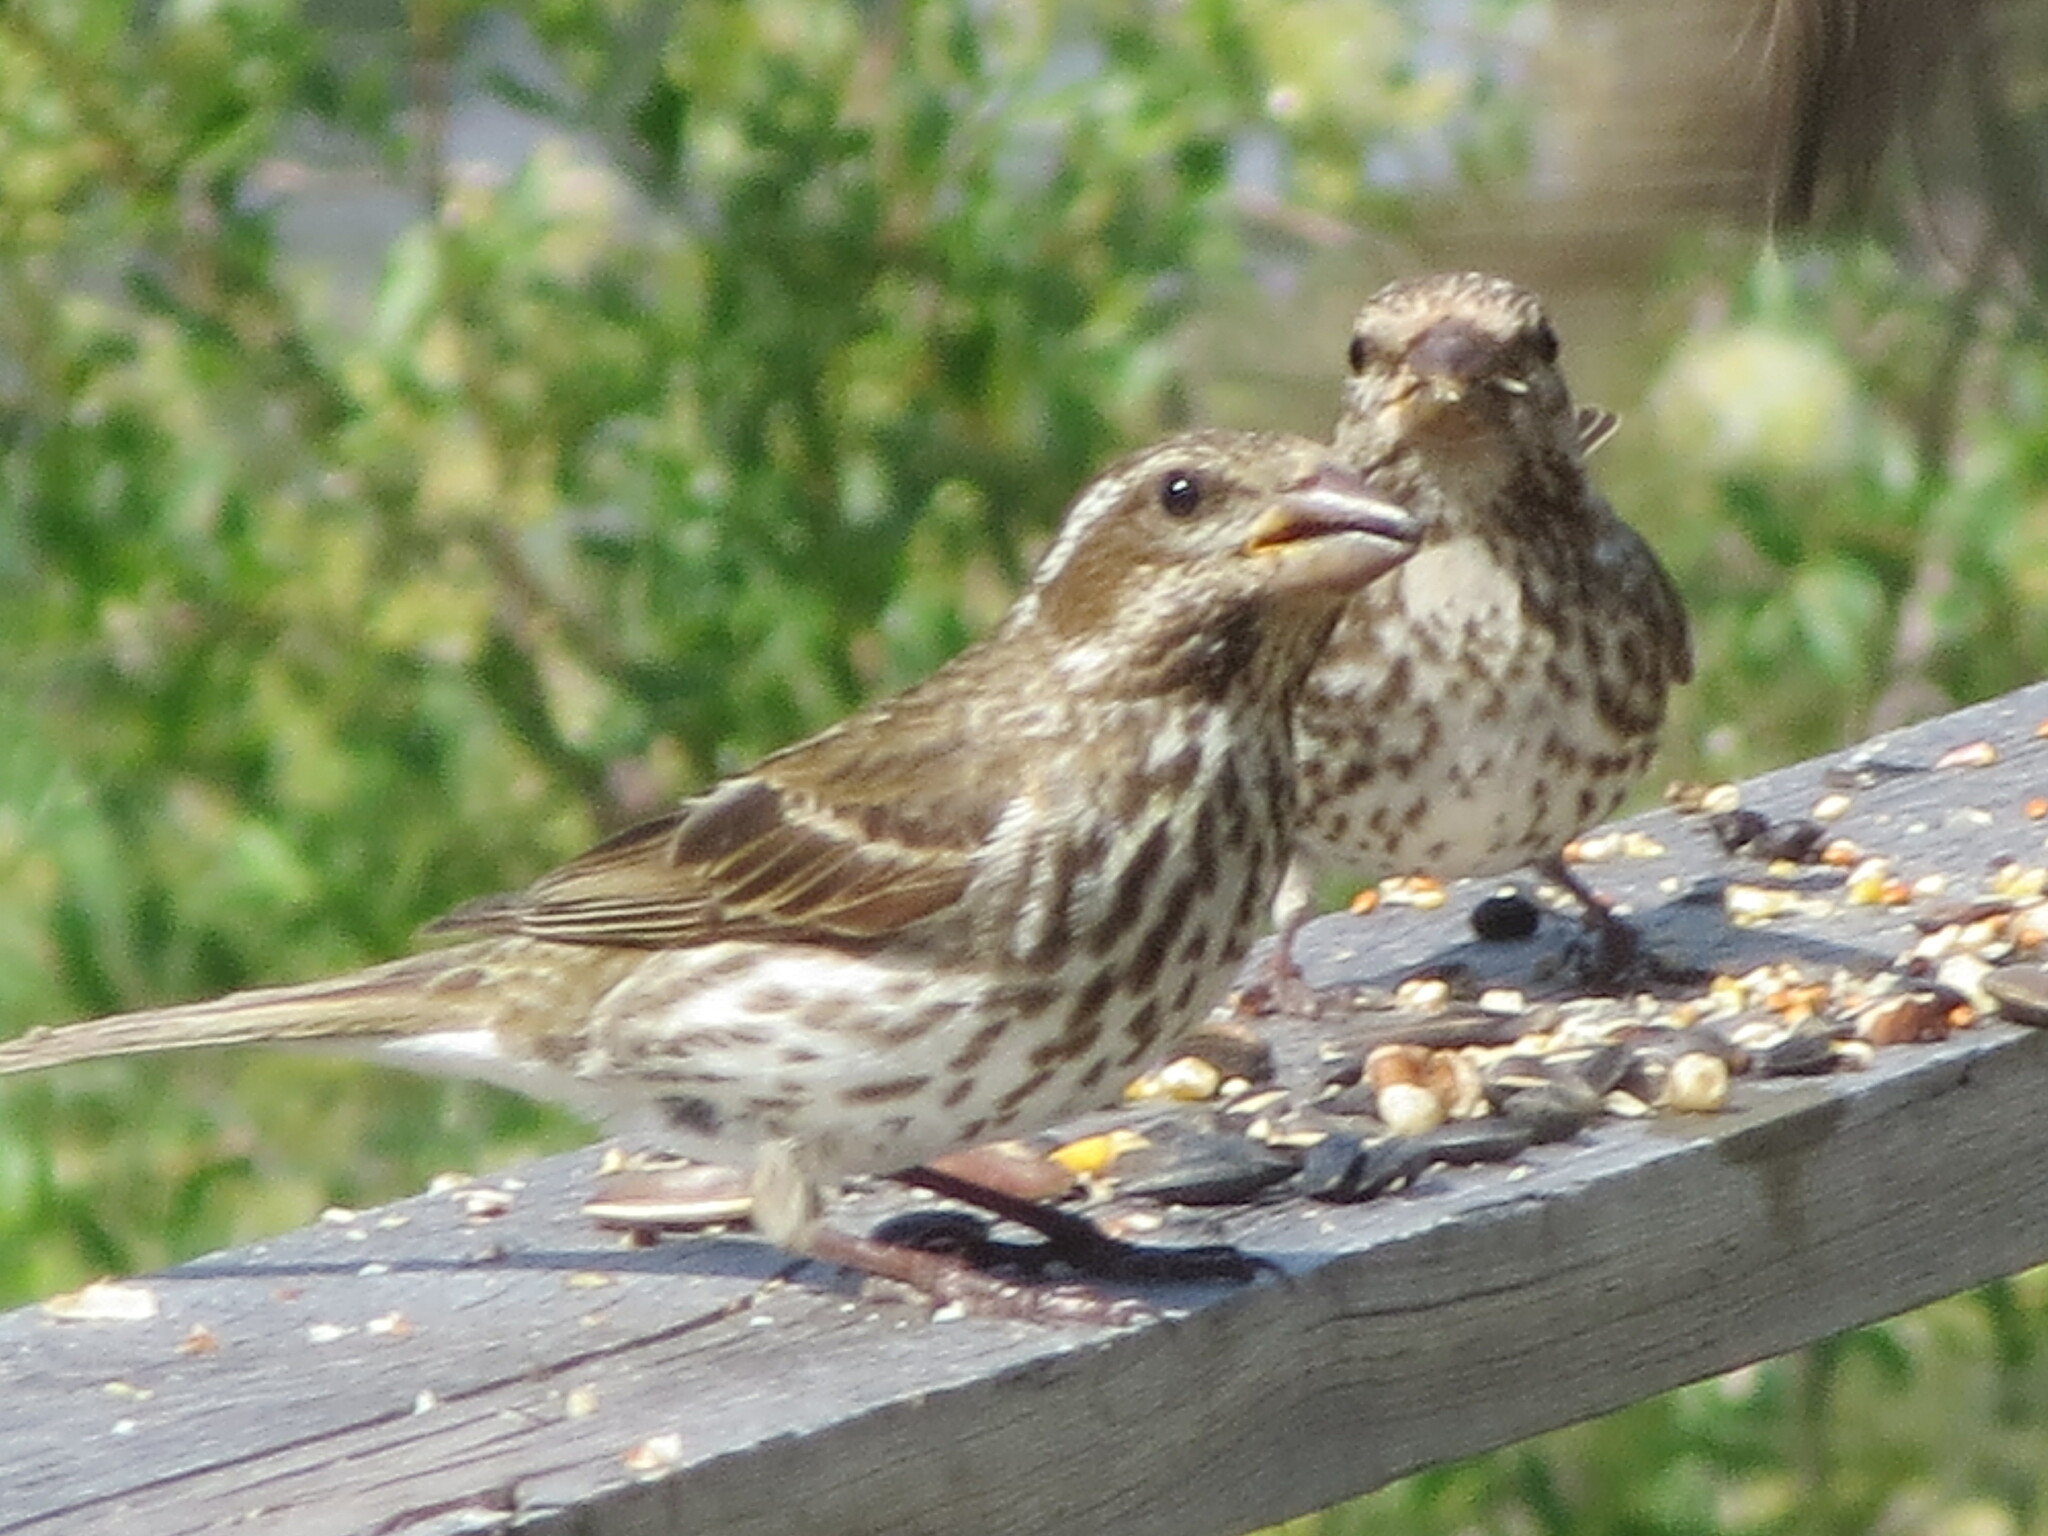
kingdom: Animalia
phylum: Chordata
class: Aves
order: Passeriformes
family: Fringillidae
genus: Haemorhous
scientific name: Haemorhous purpureus
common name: Purple finch
